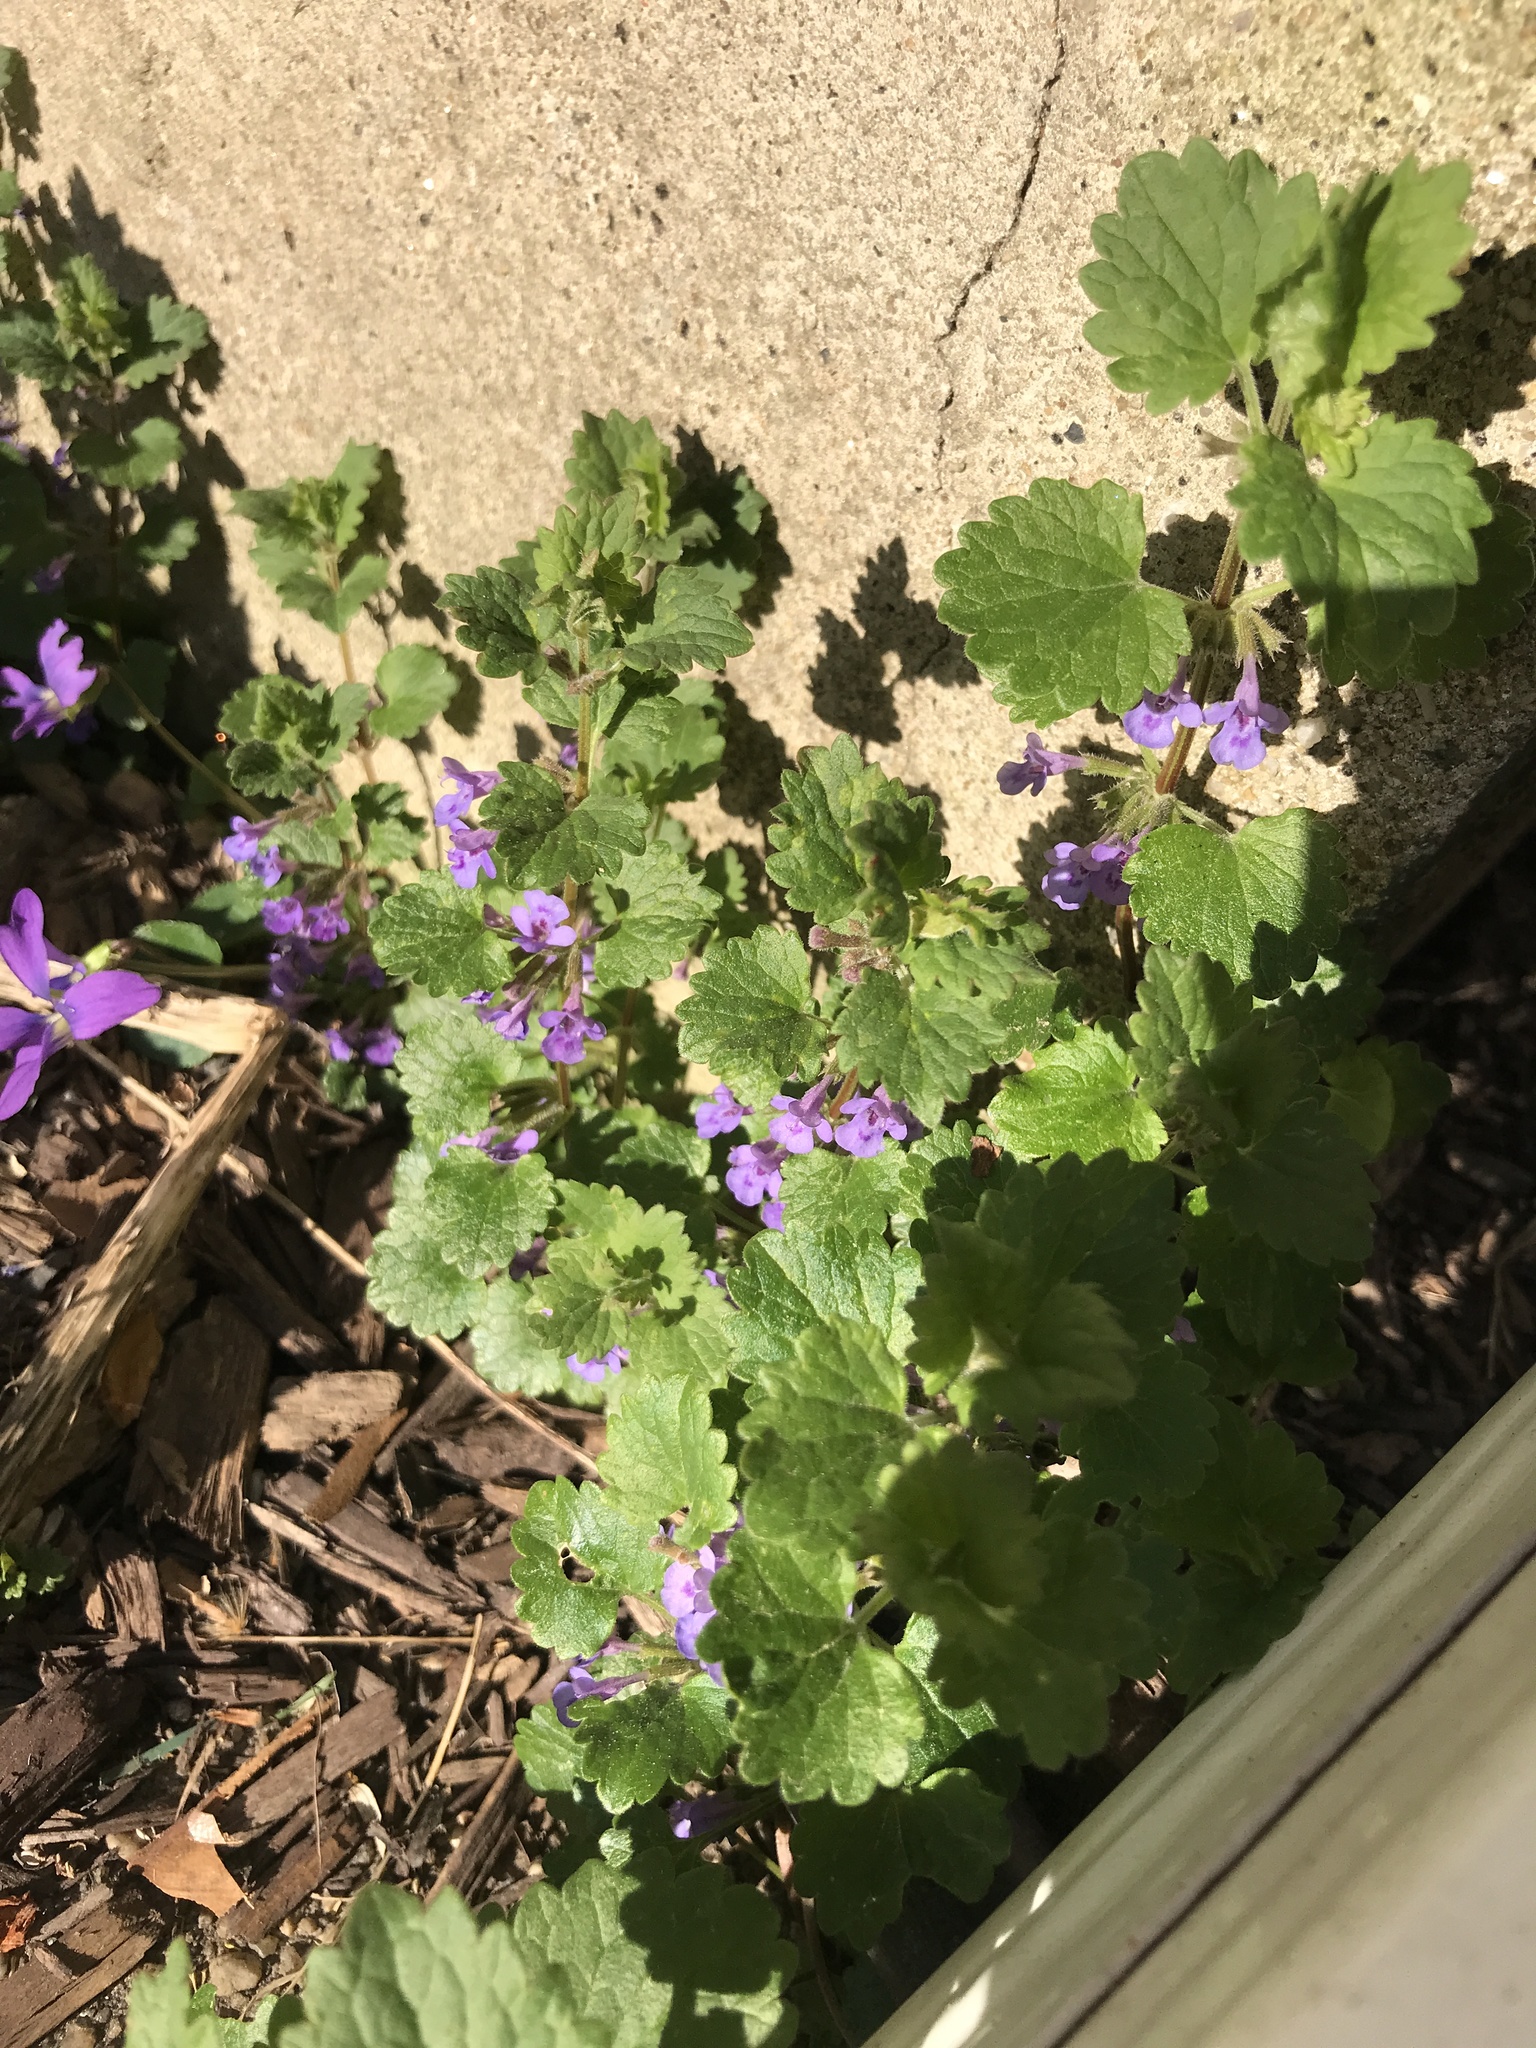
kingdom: Plantae
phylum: Tracheophyta
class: Magnoliopsida
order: Lamiales
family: Lamiaceae
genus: Glechoma
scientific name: Glechoma hederacea
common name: Ground ivy
